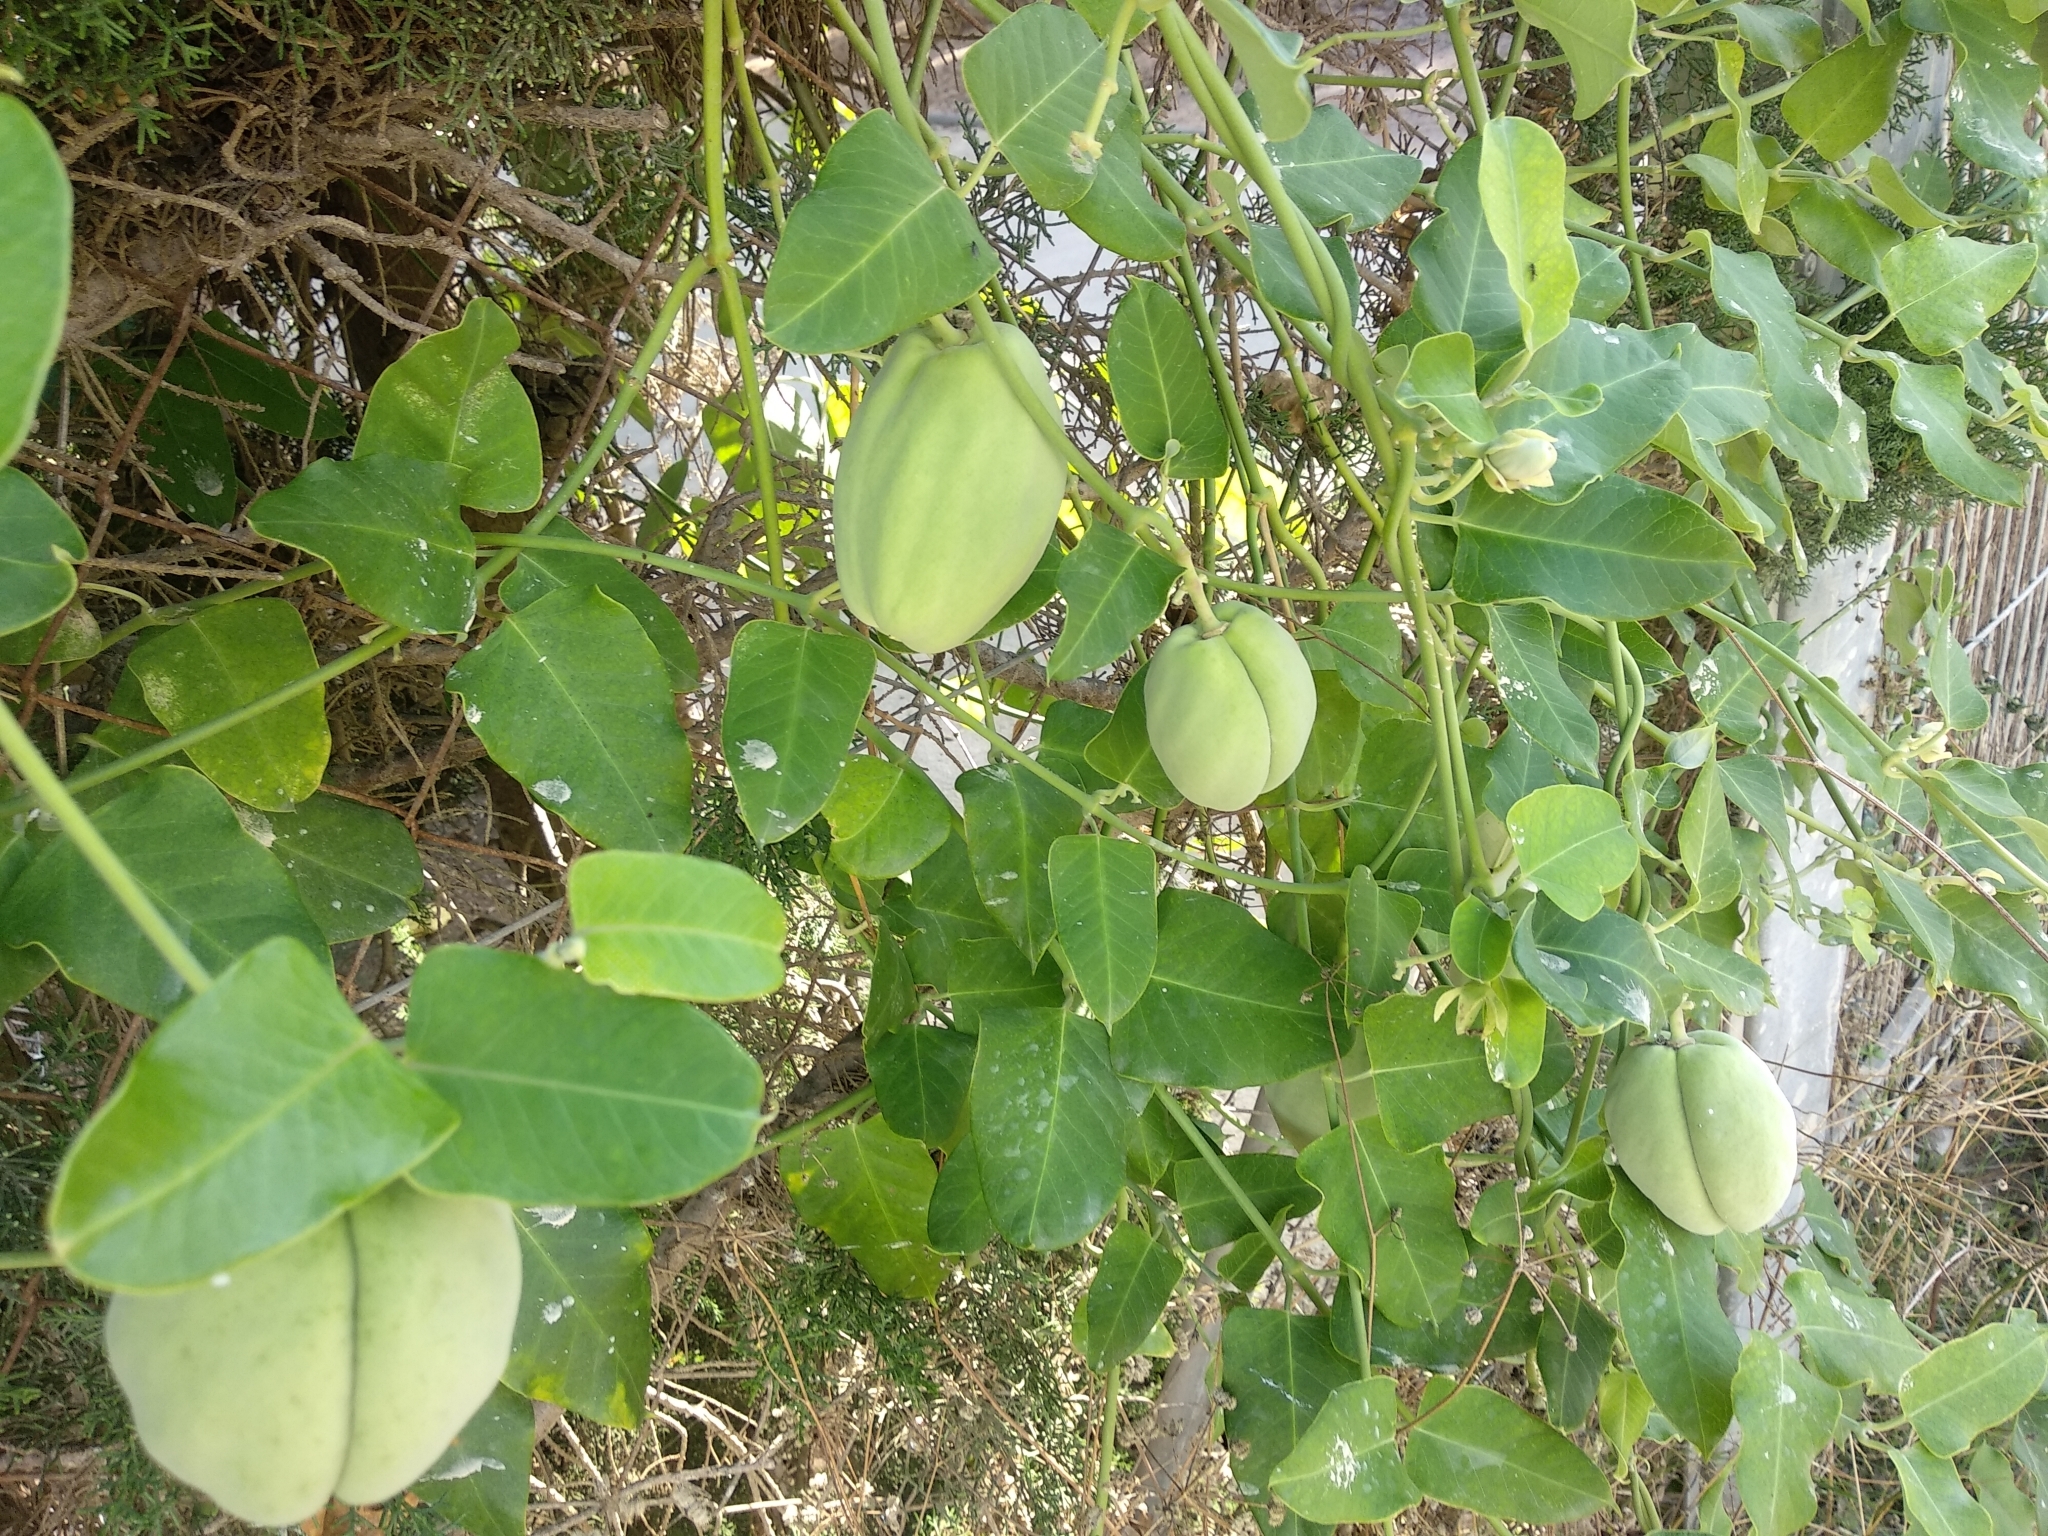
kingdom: Plantae
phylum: Tracheophyta
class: Magnoliopsida
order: Gentianales
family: Apocynaceae
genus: Araujia
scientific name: Araujia sericifera
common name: White bladderflower
